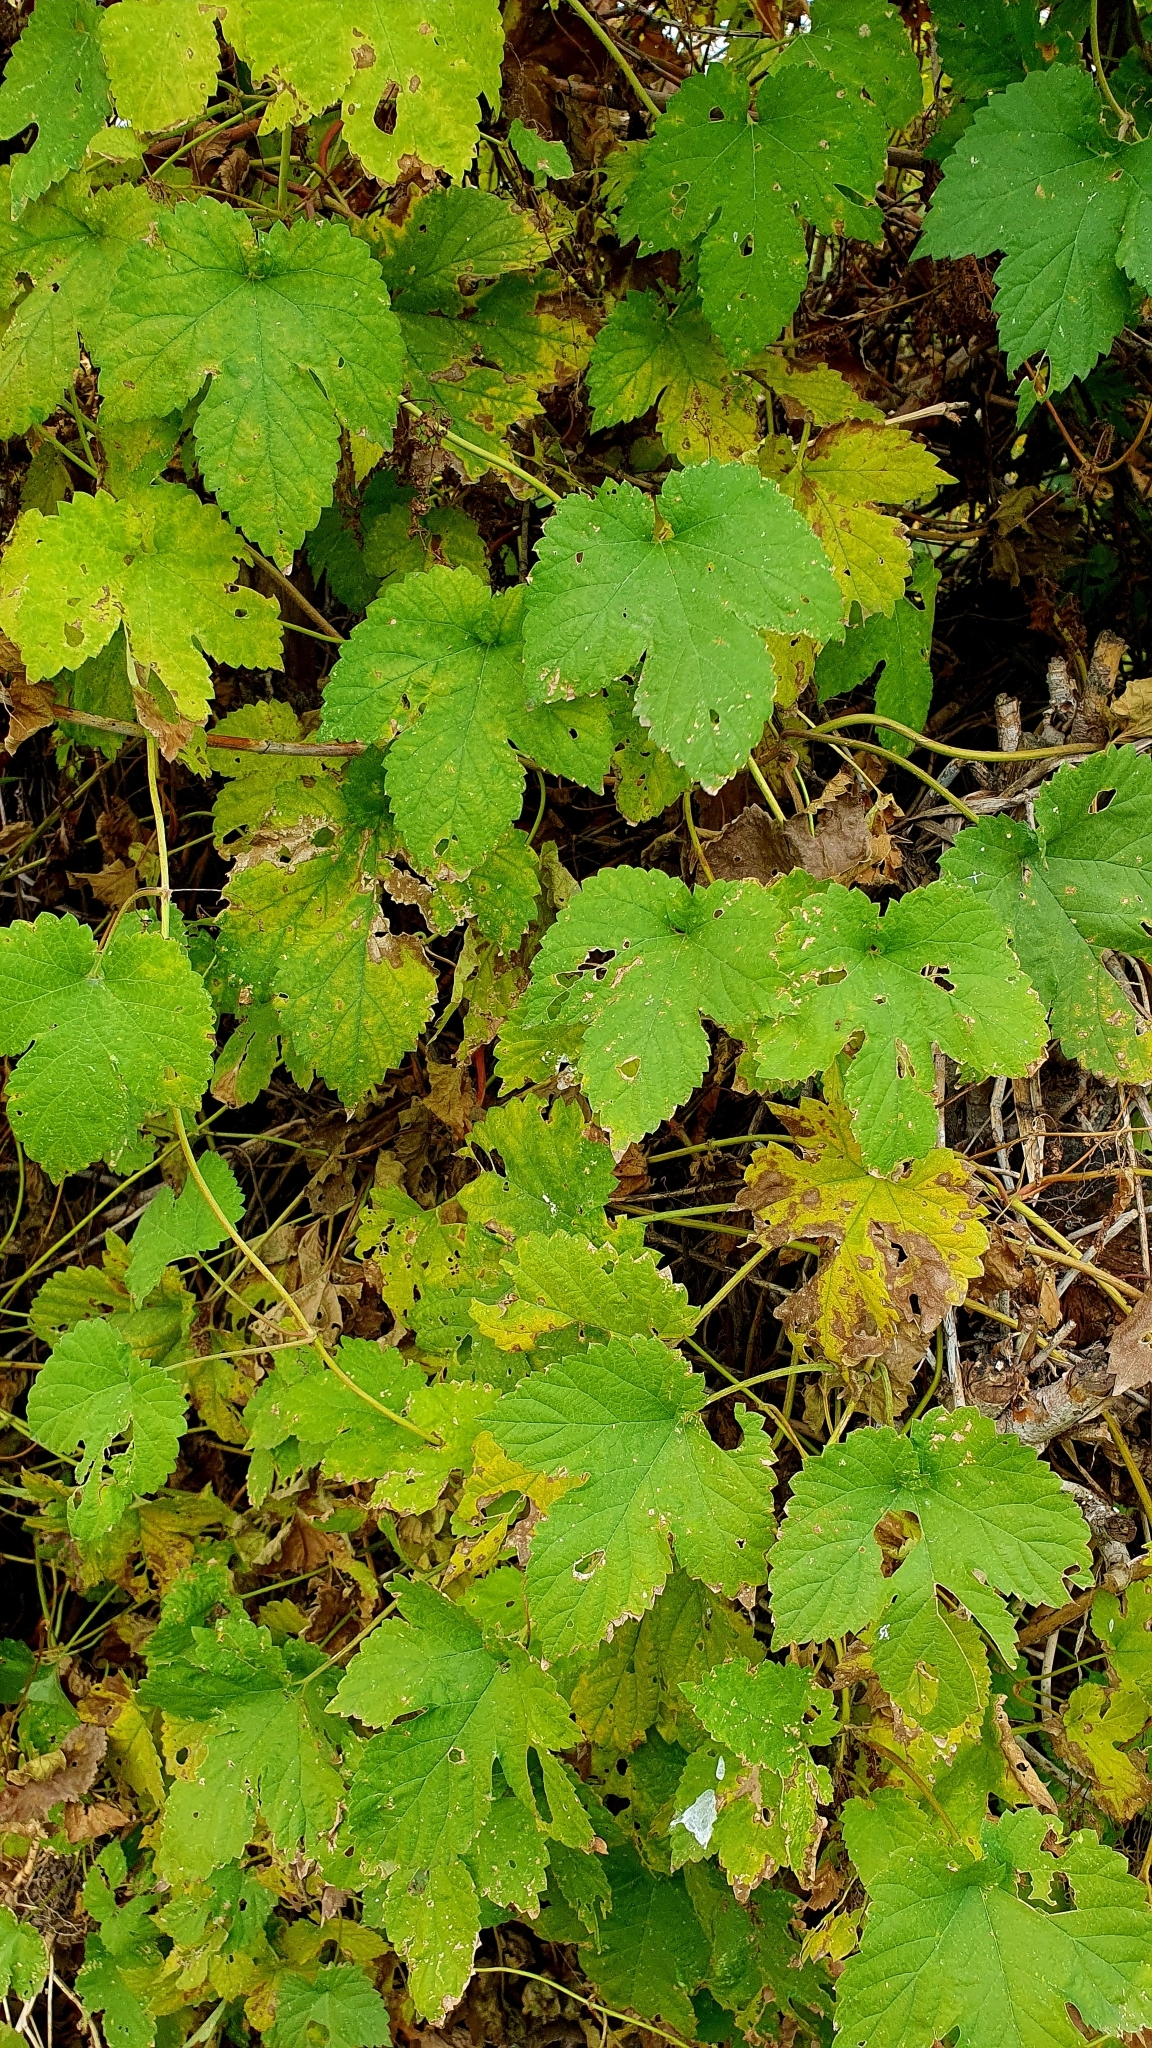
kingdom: Plantae
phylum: Tracheophyta
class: Magnoliopsida
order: Rosales
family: Cannabaceae
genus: Humulus
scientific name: Humulus lupulus
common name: Hop
